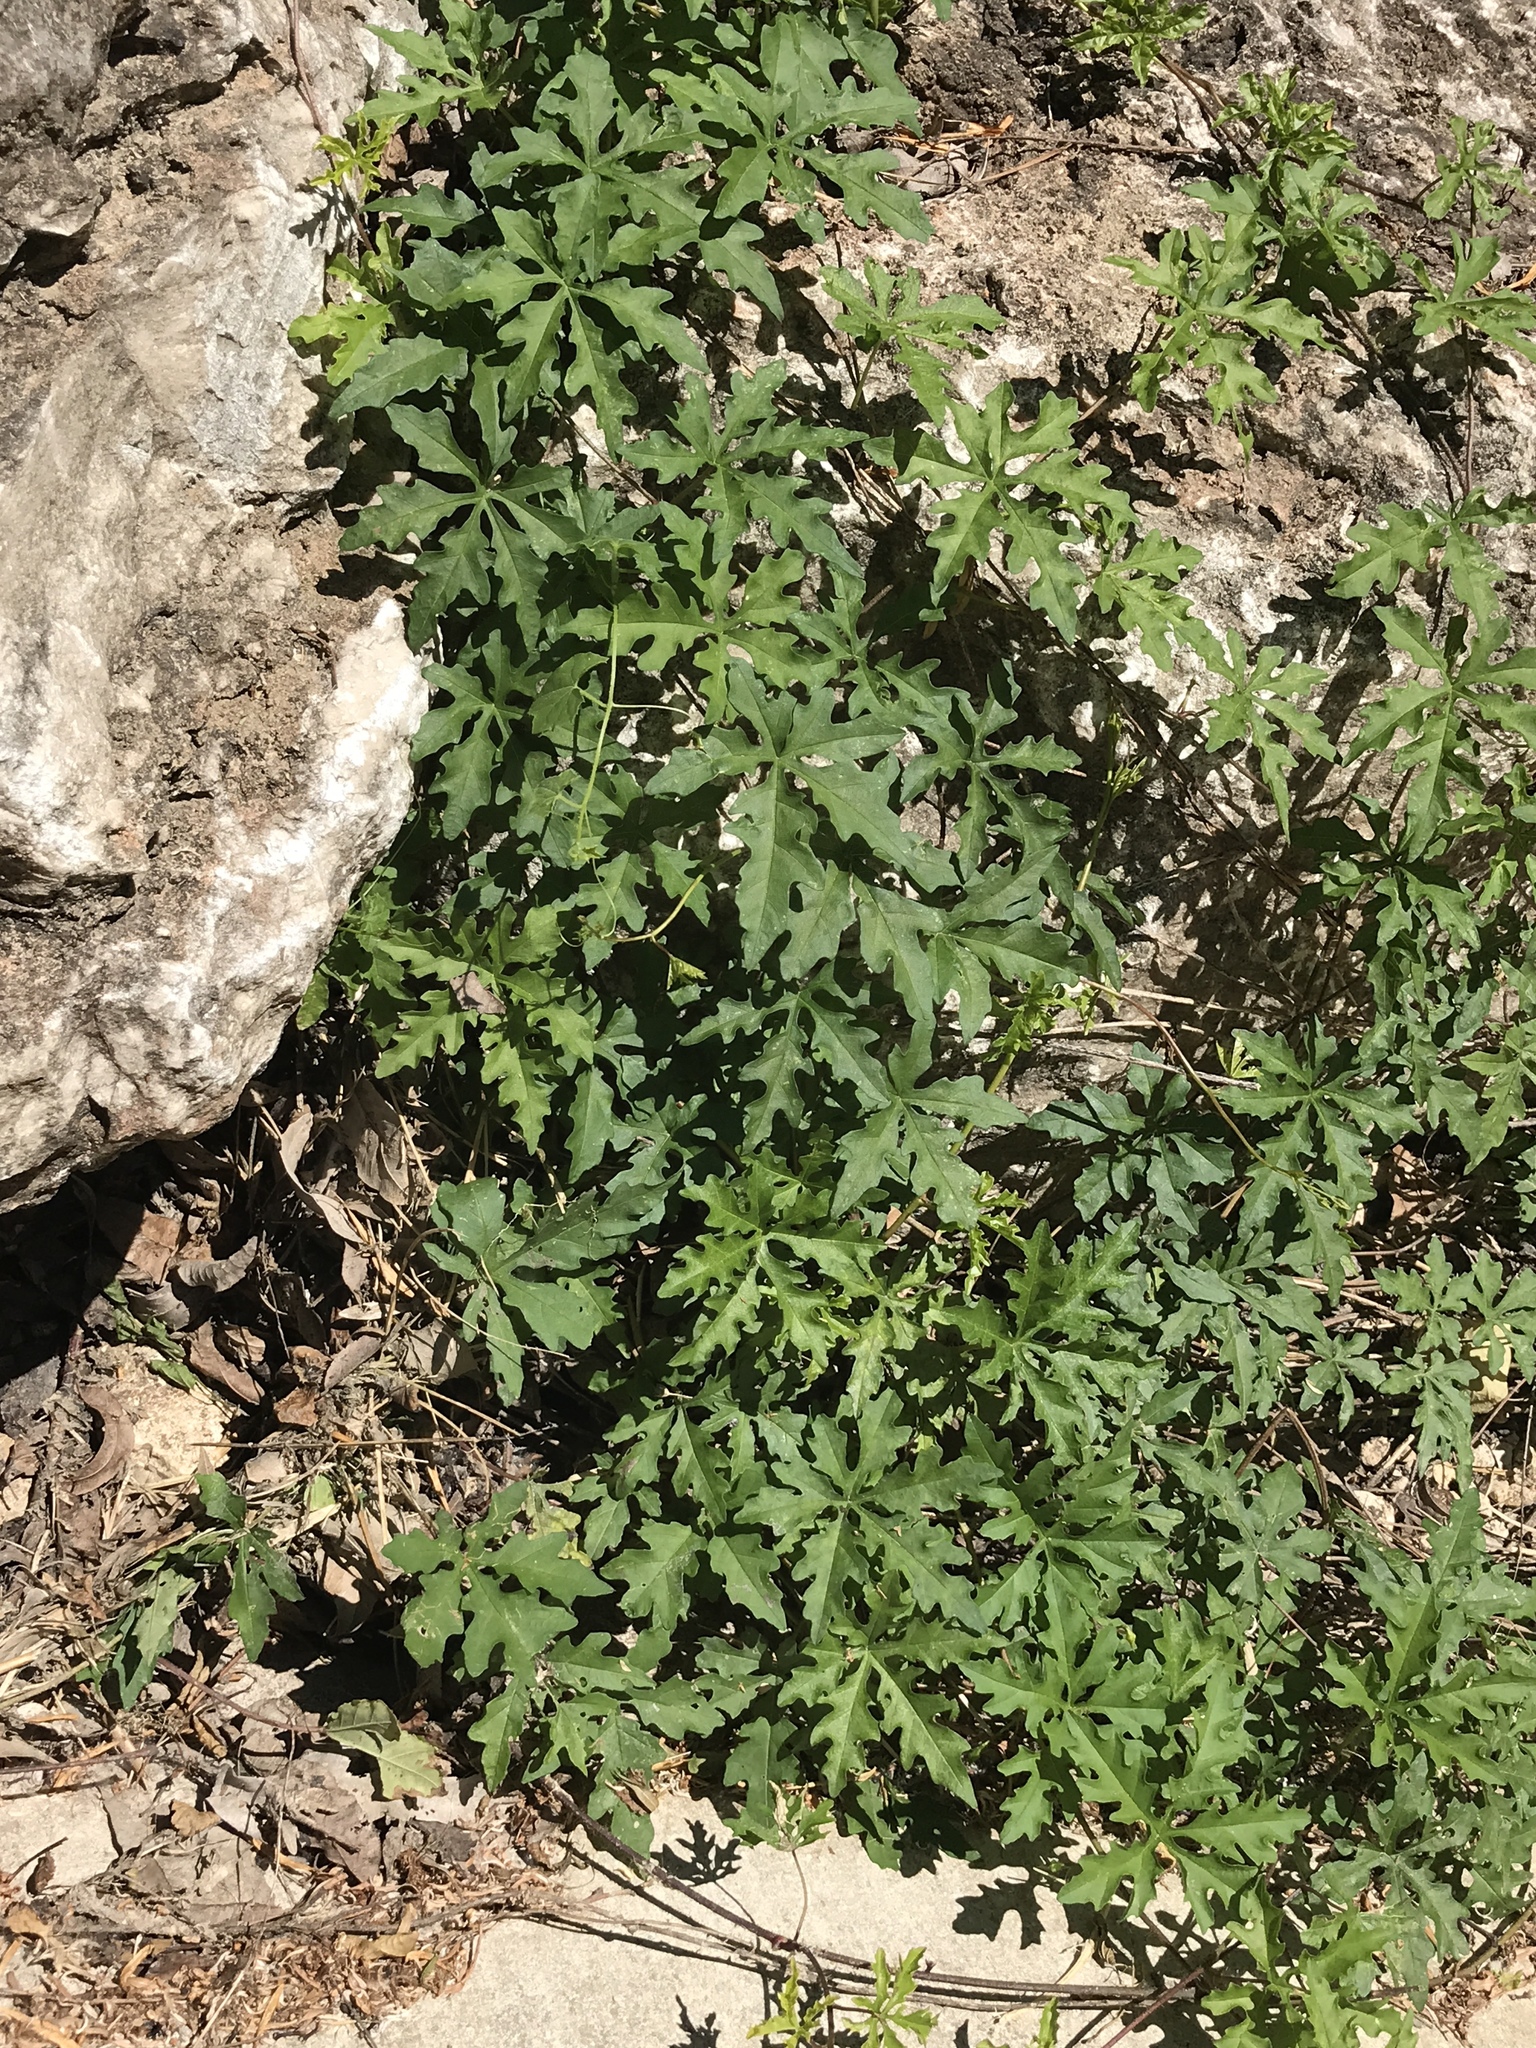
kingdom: Plantae
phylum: Tracheophyta
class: Magnoliopsida
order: Solanales
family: Convolvulaceae
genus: Distimake
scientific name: Distimake dissectus
